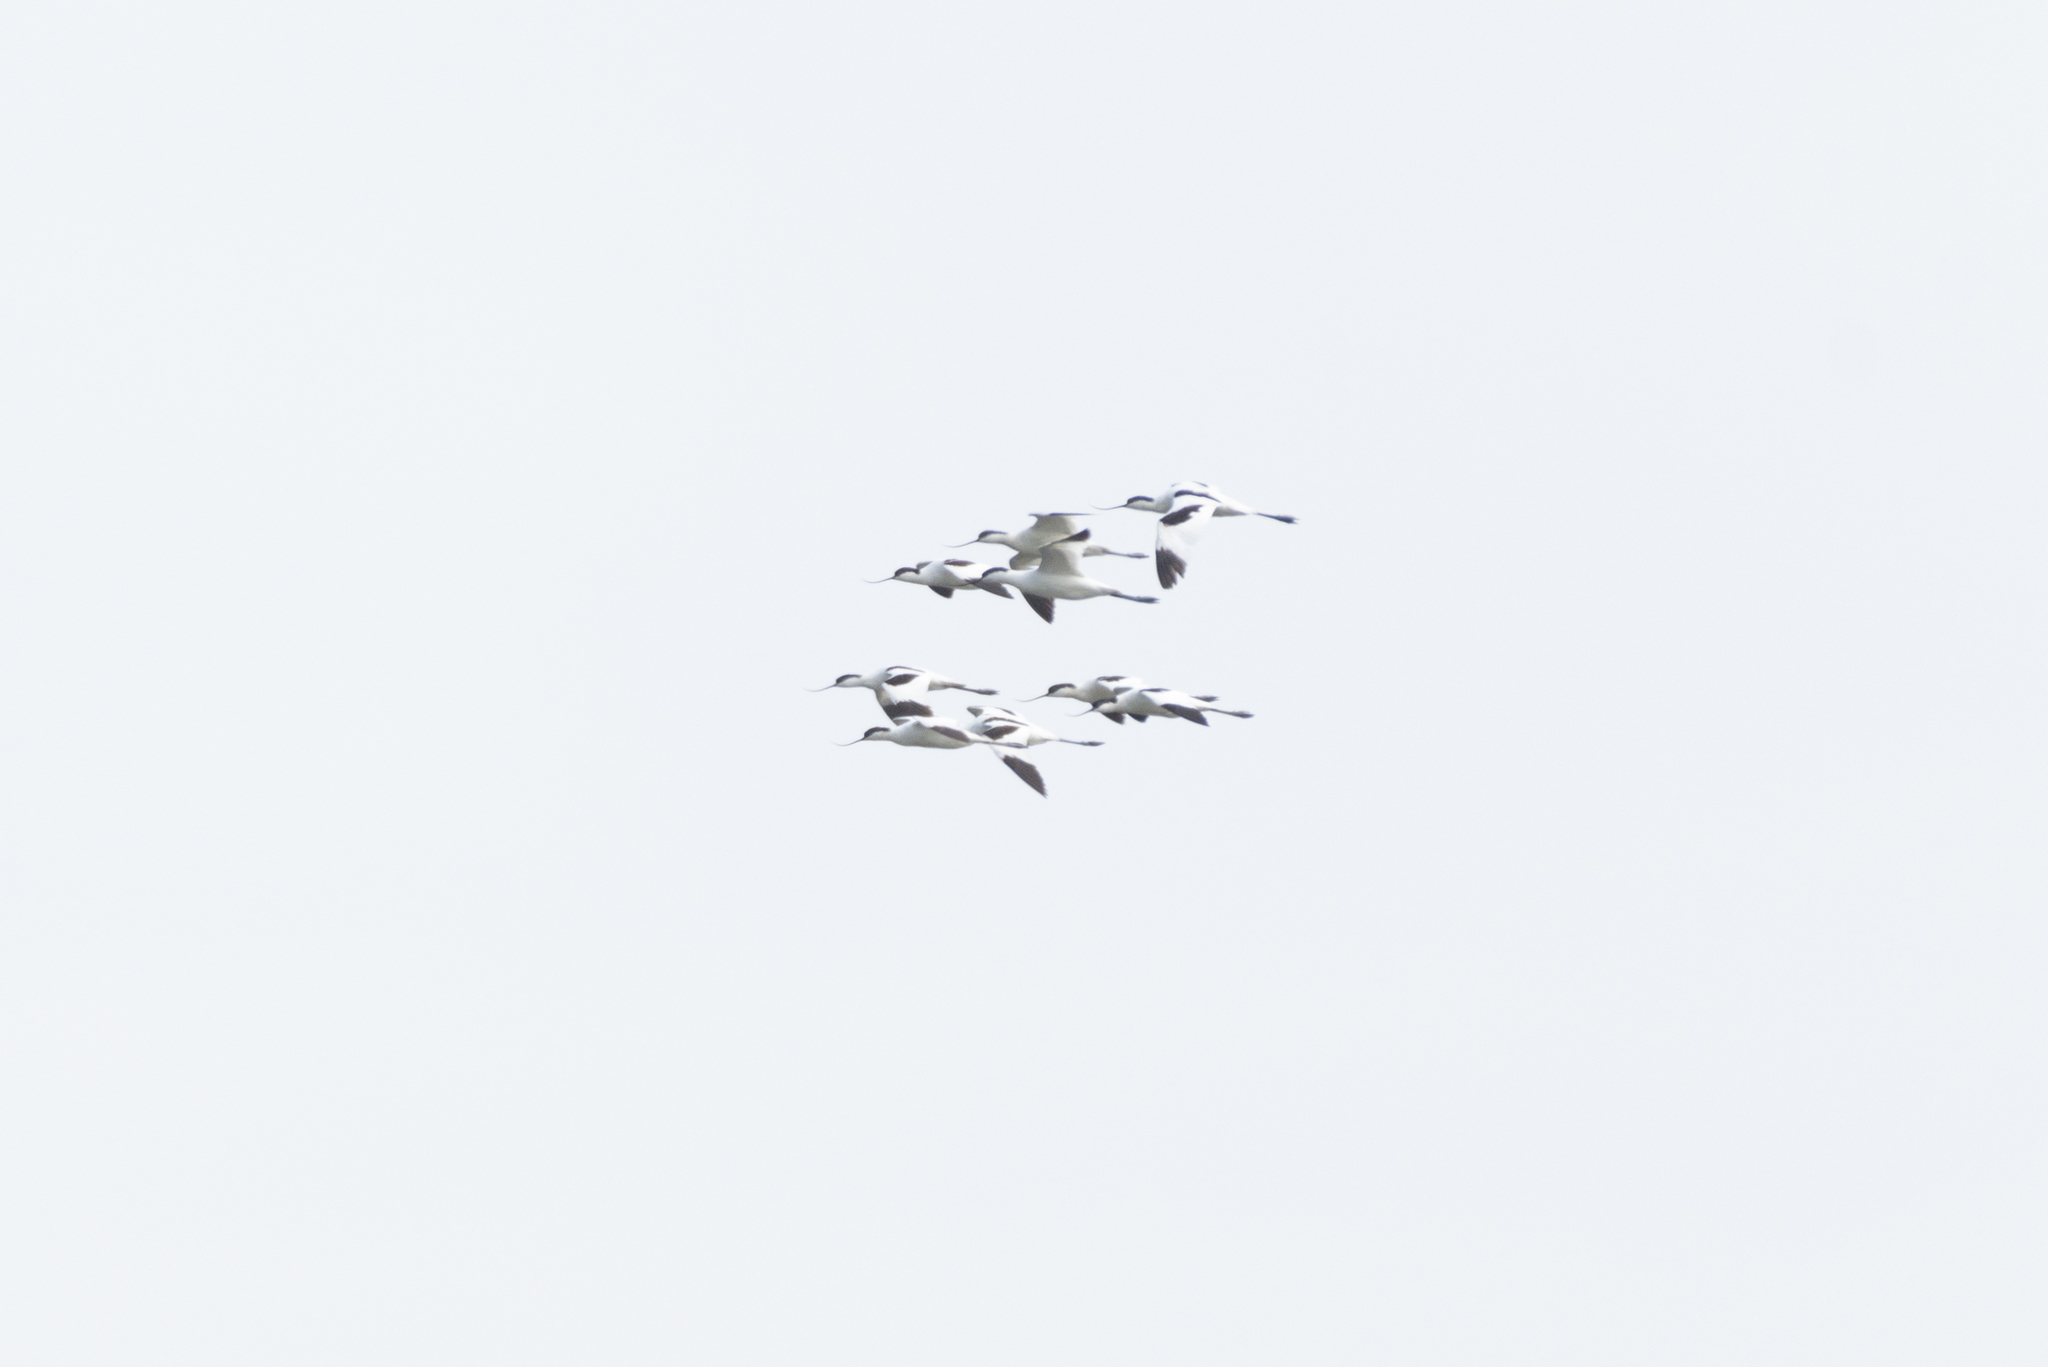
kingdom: Animalia
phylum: Chordata
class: Aves
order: Charadriiformes
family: Recurvirostridae
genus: Recurvirostra
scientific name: Recurvirostra avosetta
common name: Pied avocet
